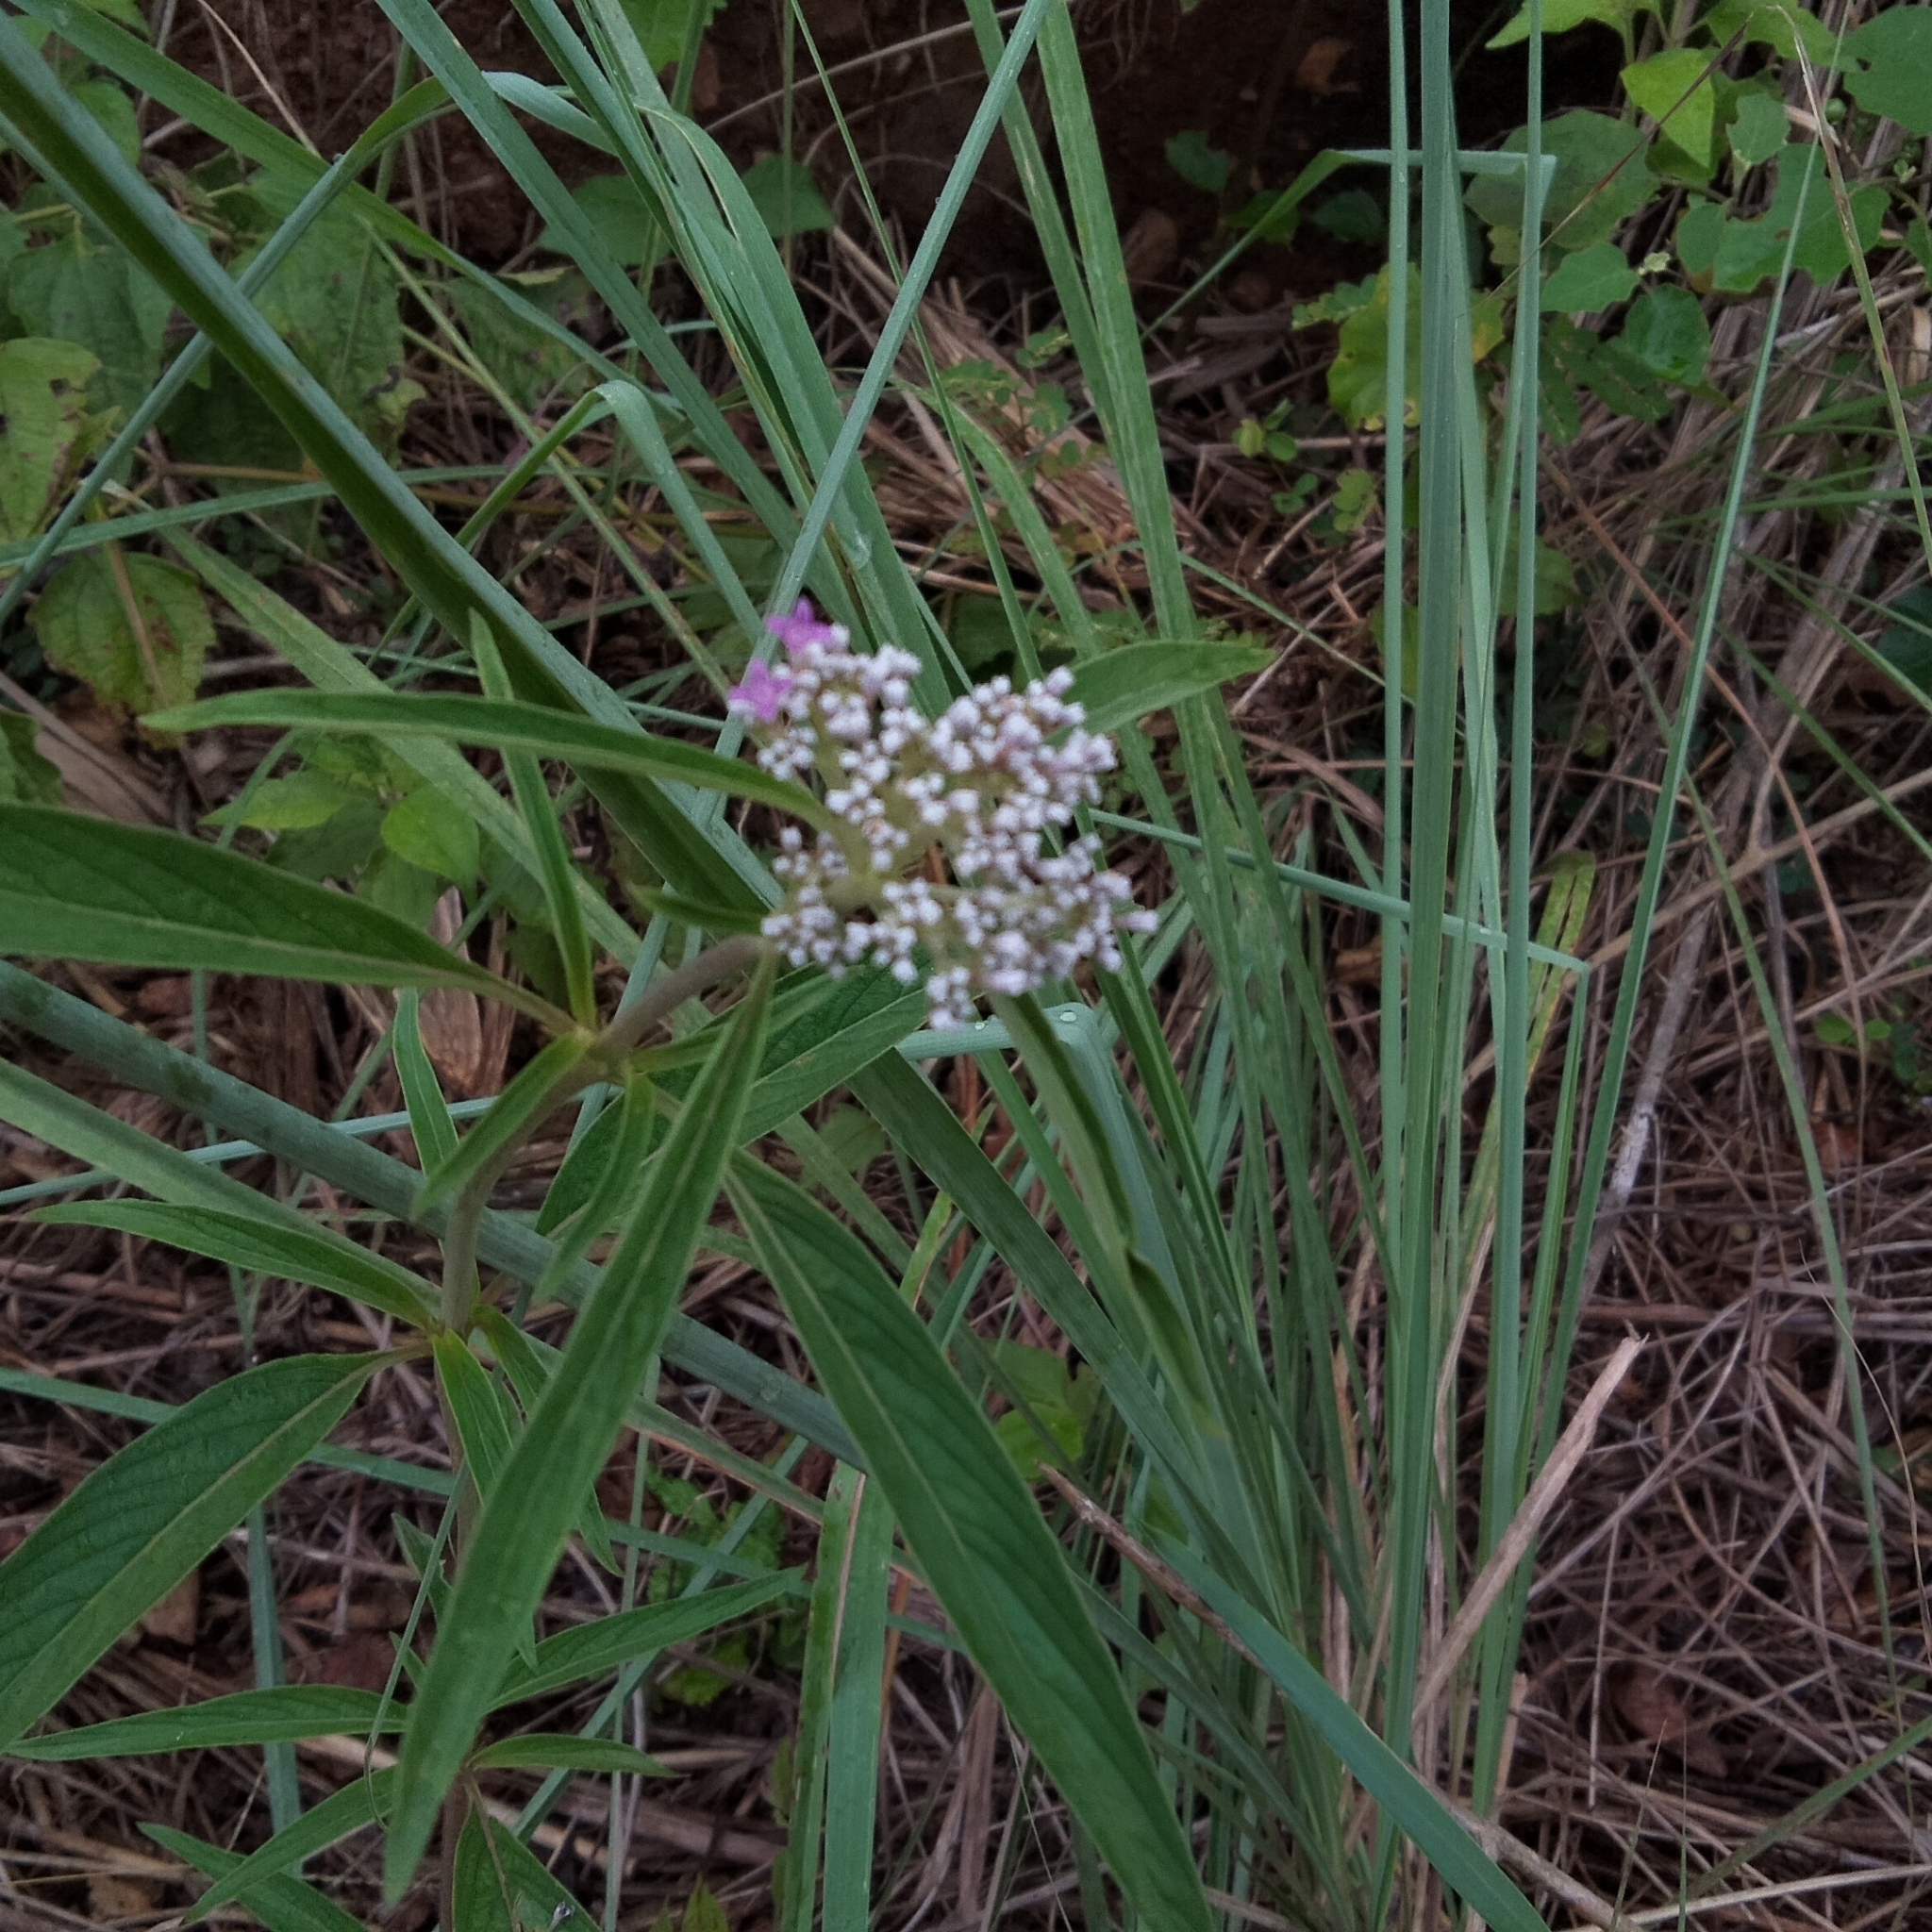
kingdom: Plantae
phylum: Tracheophyta
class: Magnoliopsida
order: Gentianales
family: Rubiaceae
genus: Knoxia
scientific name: Knoxia sumatrensis
